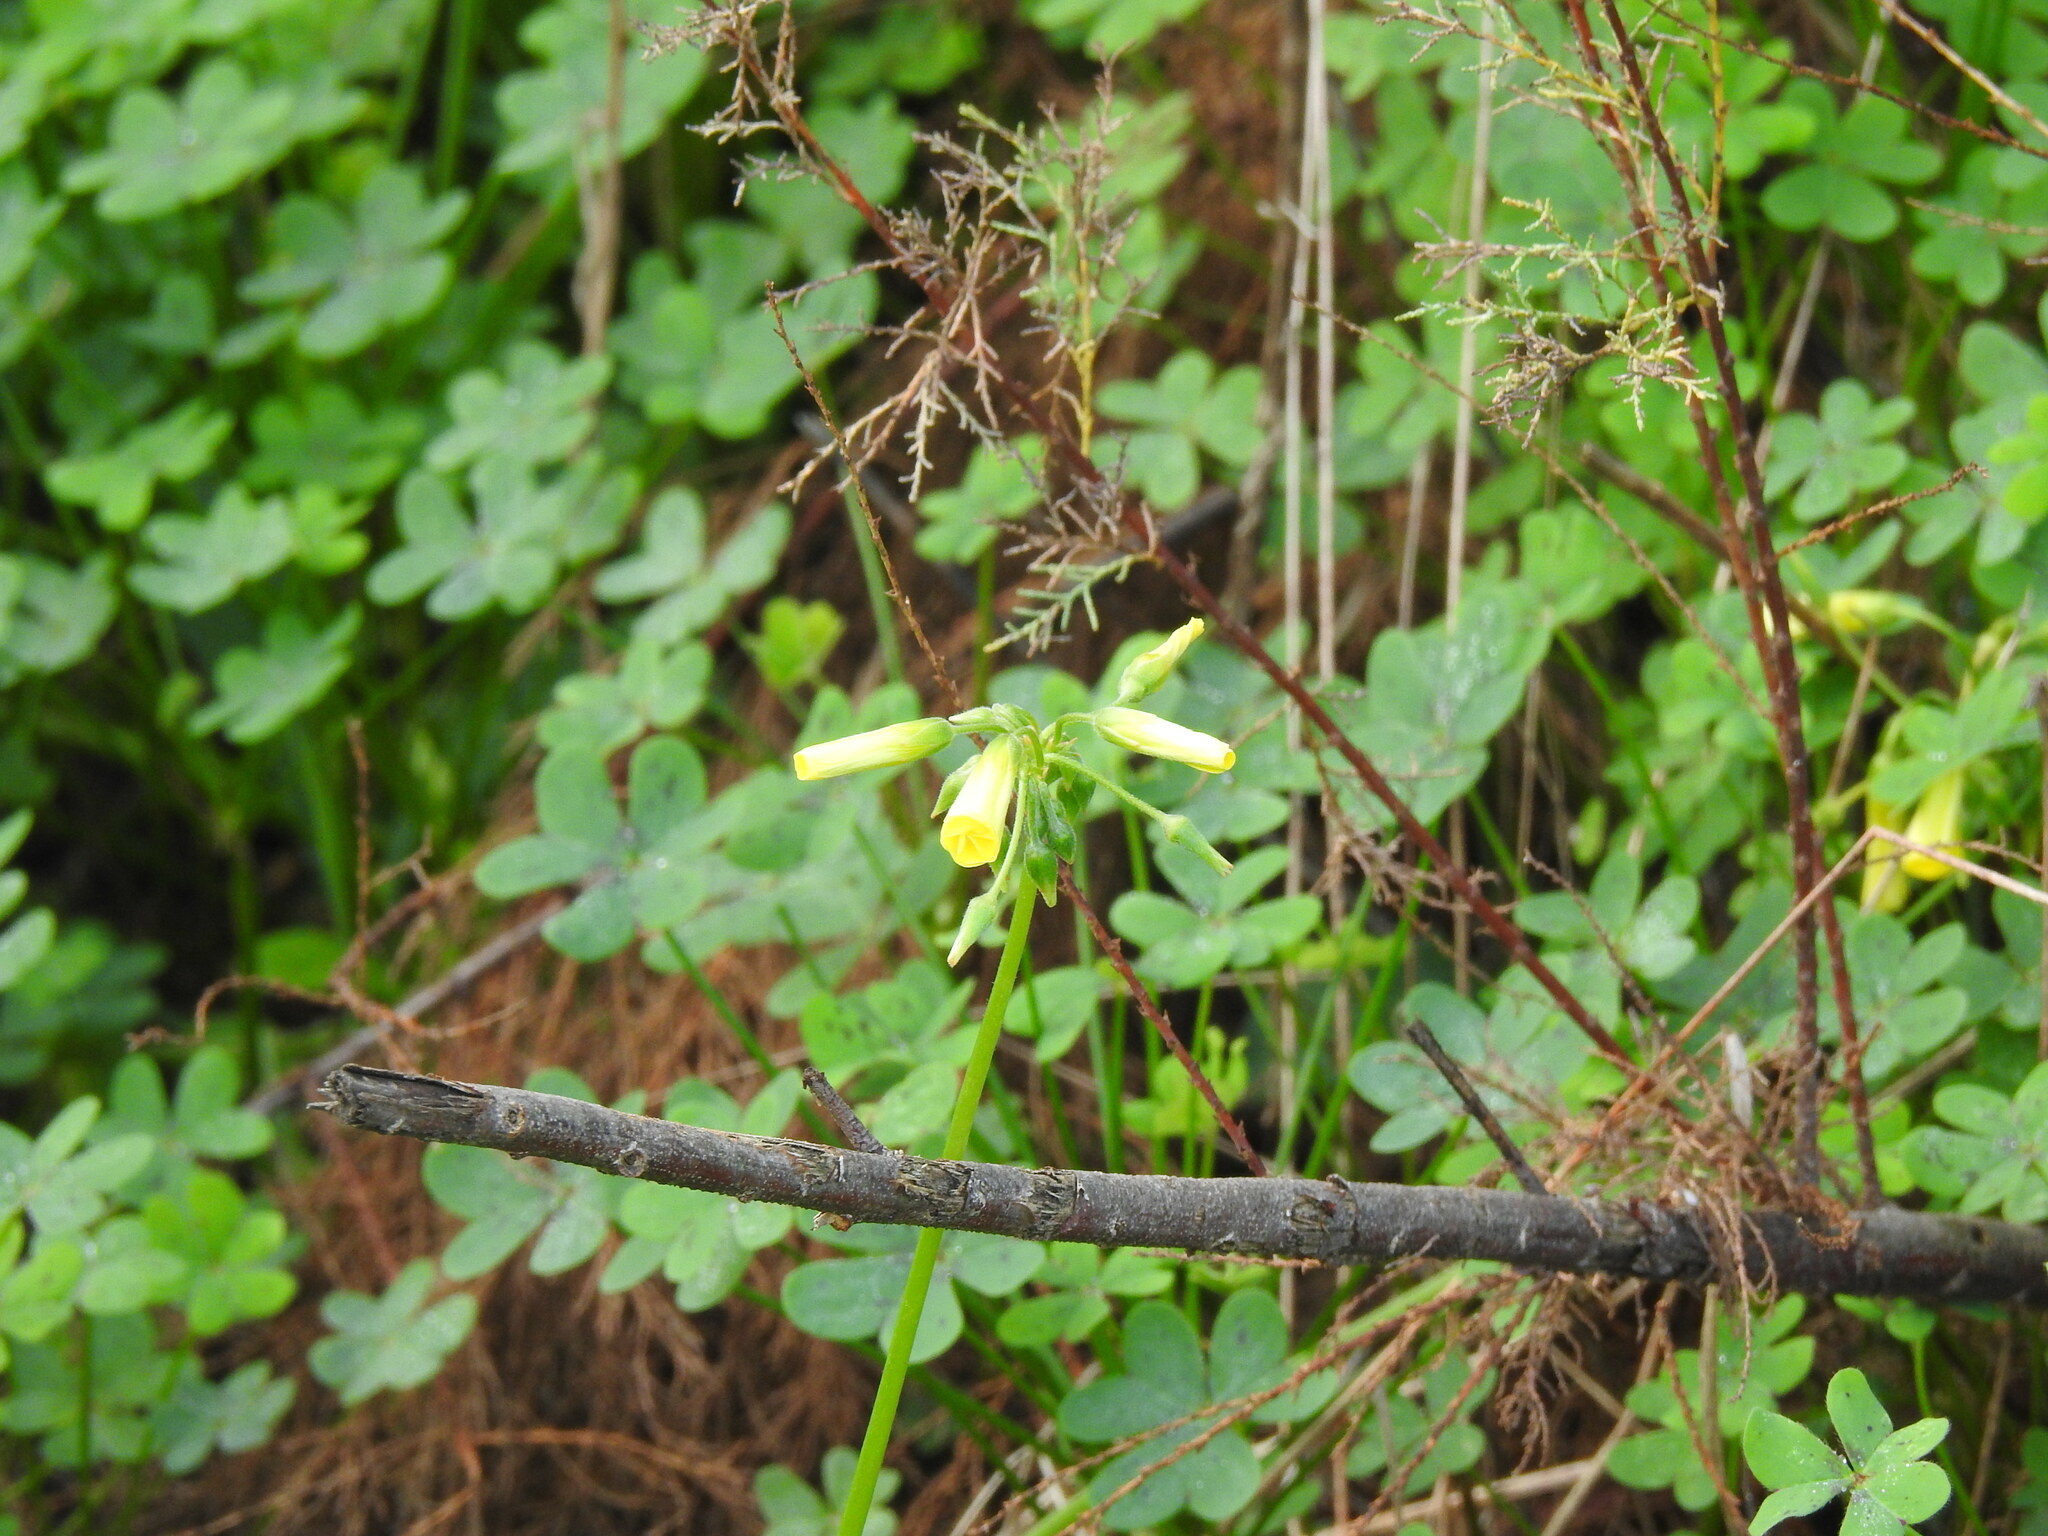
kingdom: Plantae
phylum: Tracheophyta
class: Magnoliopsida
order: Oxalidales
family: Oxalidaceae
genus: Oxalis
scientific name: Oxalis pes-caprae
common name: Bermuda-buttercup
